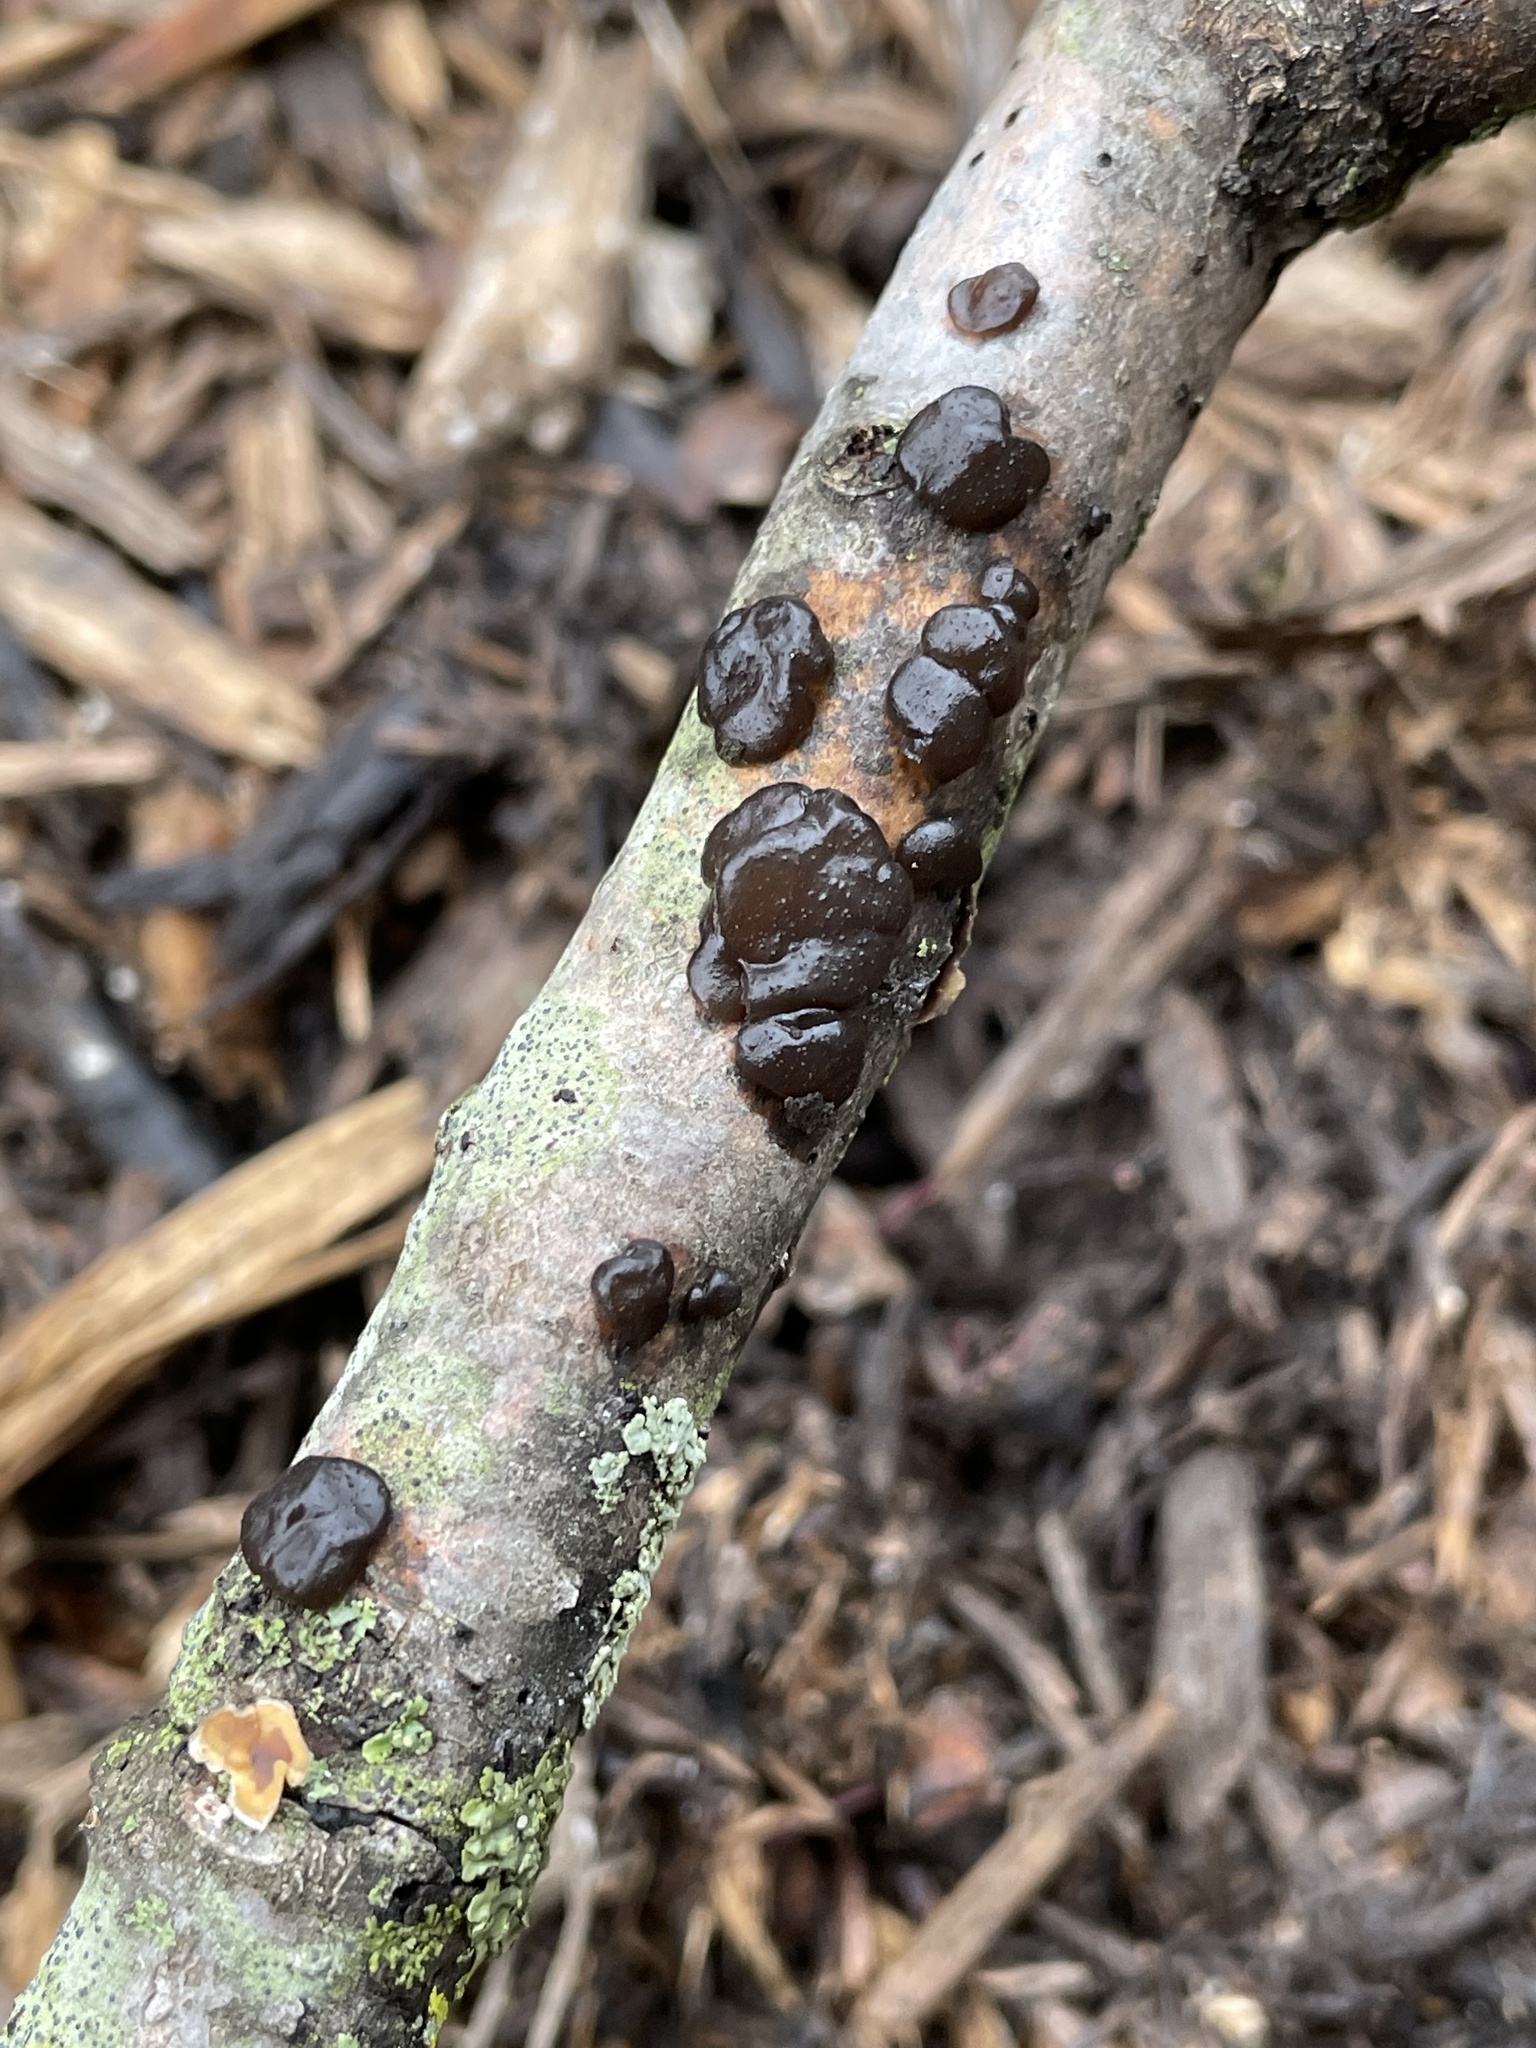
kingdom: Fungi
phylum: Basidiomycota
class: Agaricomycetes
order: Auriculariales
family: Auriculariaceae
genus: Exidia
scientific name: Exidia glandulosa
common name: Witches' butter
